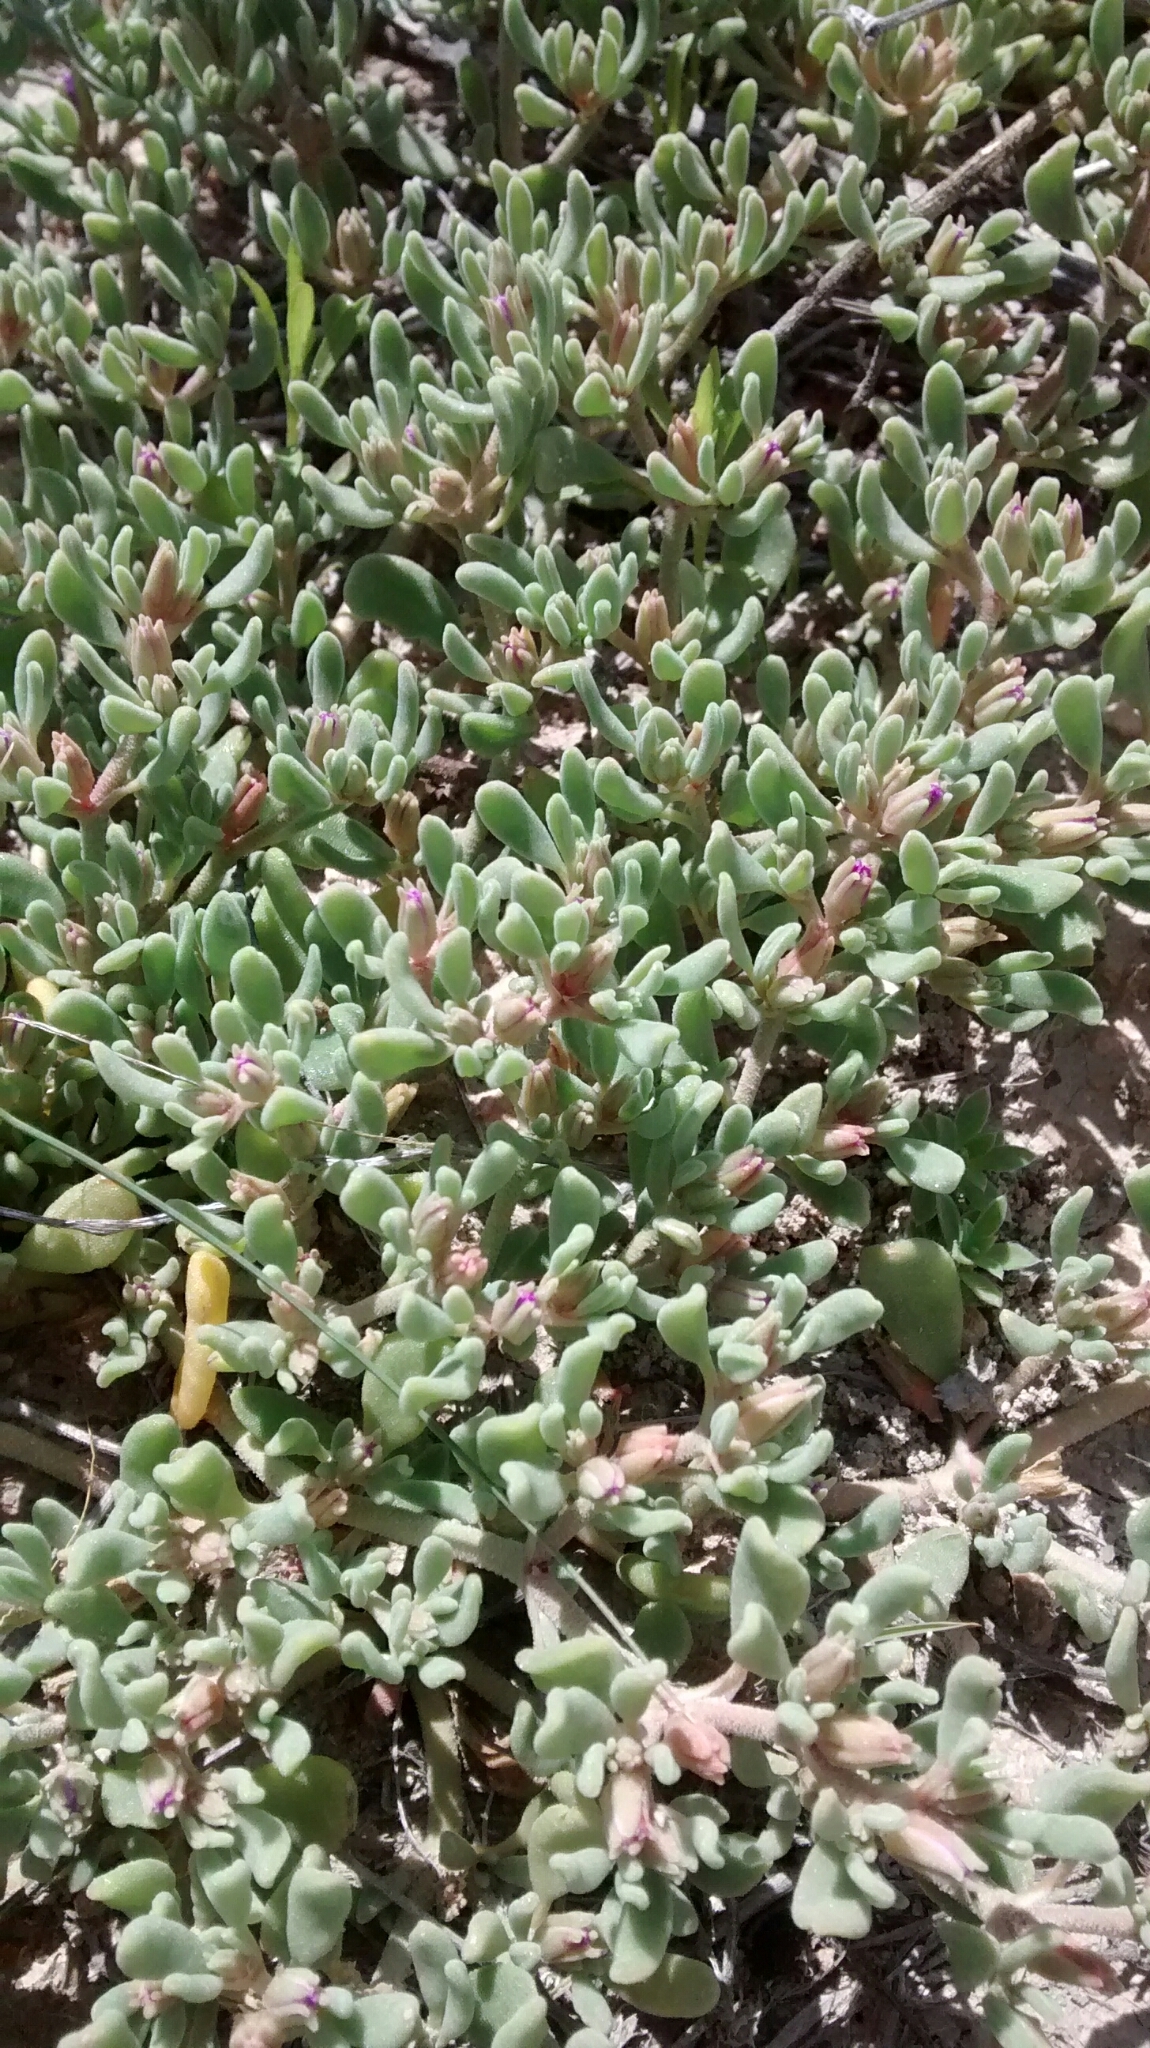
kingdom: Plantae
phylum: Tracheophyta
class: Magnoliopsida
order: Caryophyllales
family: Aizoaceae
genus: Sesuvium
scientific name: Sesuvium revolutifolium
